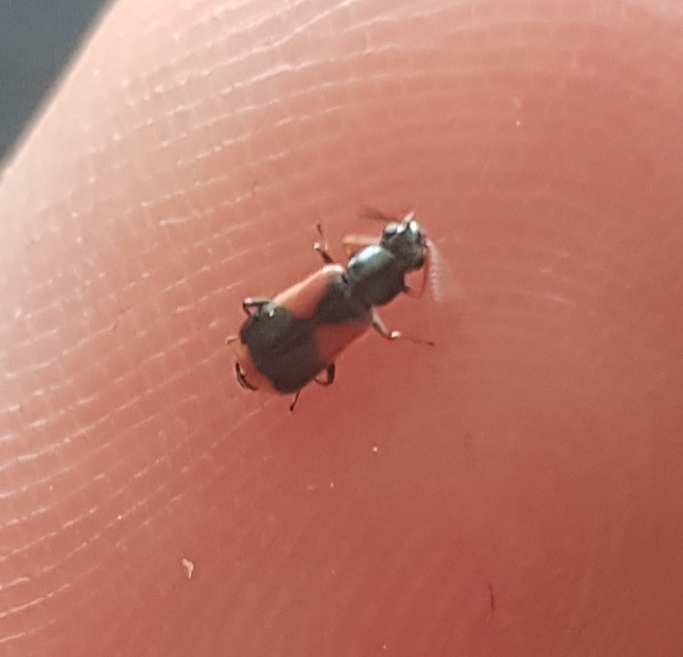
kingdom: Animalia
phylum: Arthropoda
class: Insecta
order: Coleoptera
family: Melyridae
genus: Anthocomus
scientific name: Anthocomus equestris
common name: Black-banded soft-winged flower beetle
